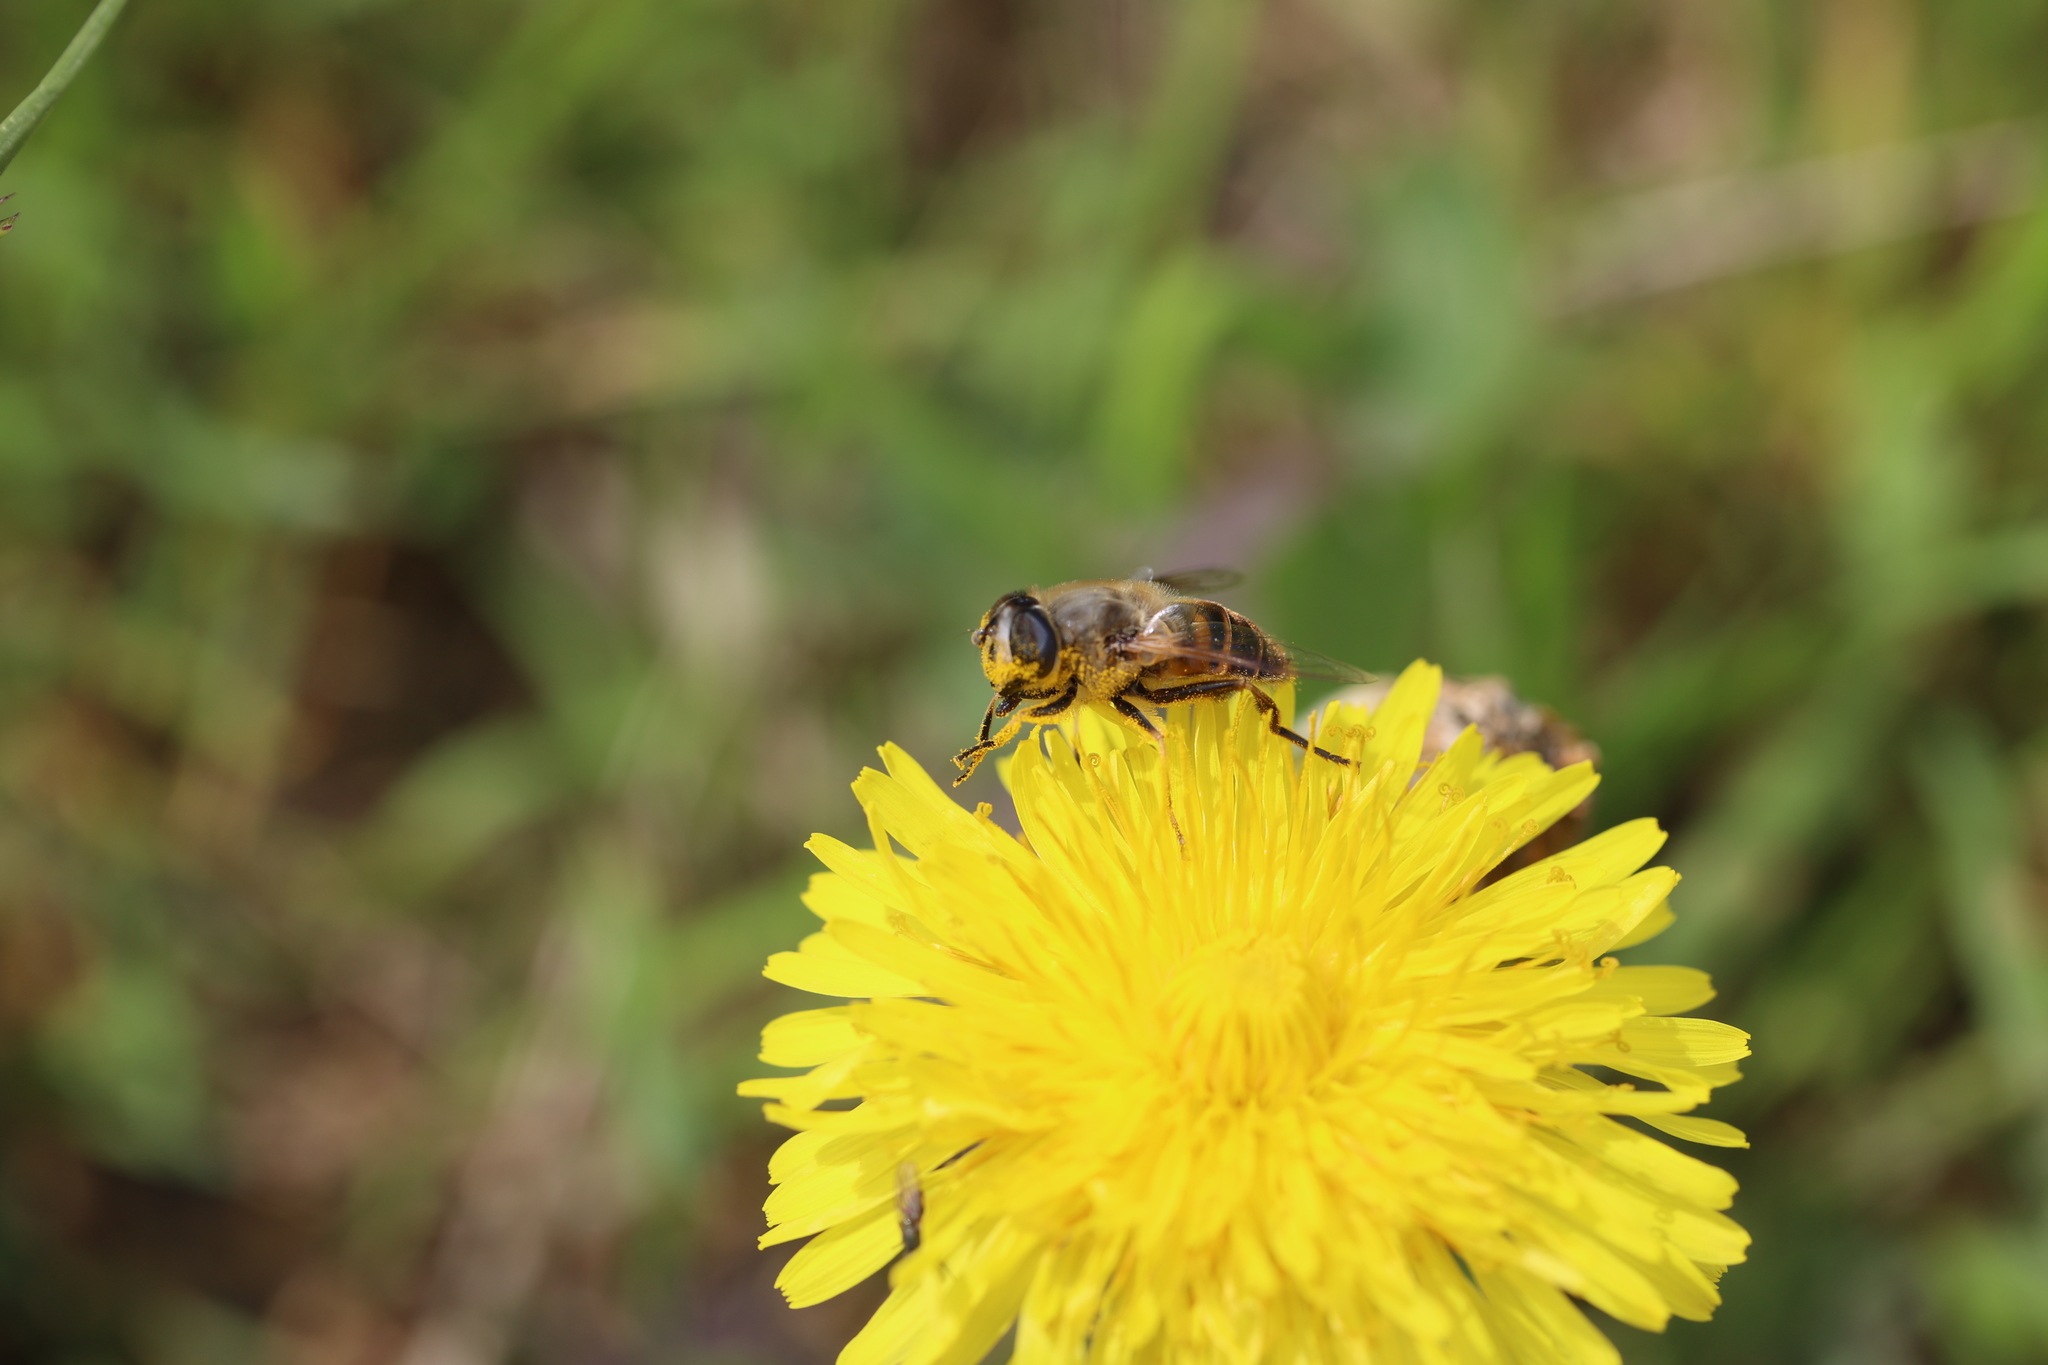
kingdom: Animalia
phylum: Arthropoda
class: Insecta
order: Diptera
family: Syrphidae
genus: Eristalis
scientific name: Eristalis tenax
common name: Drone fly
